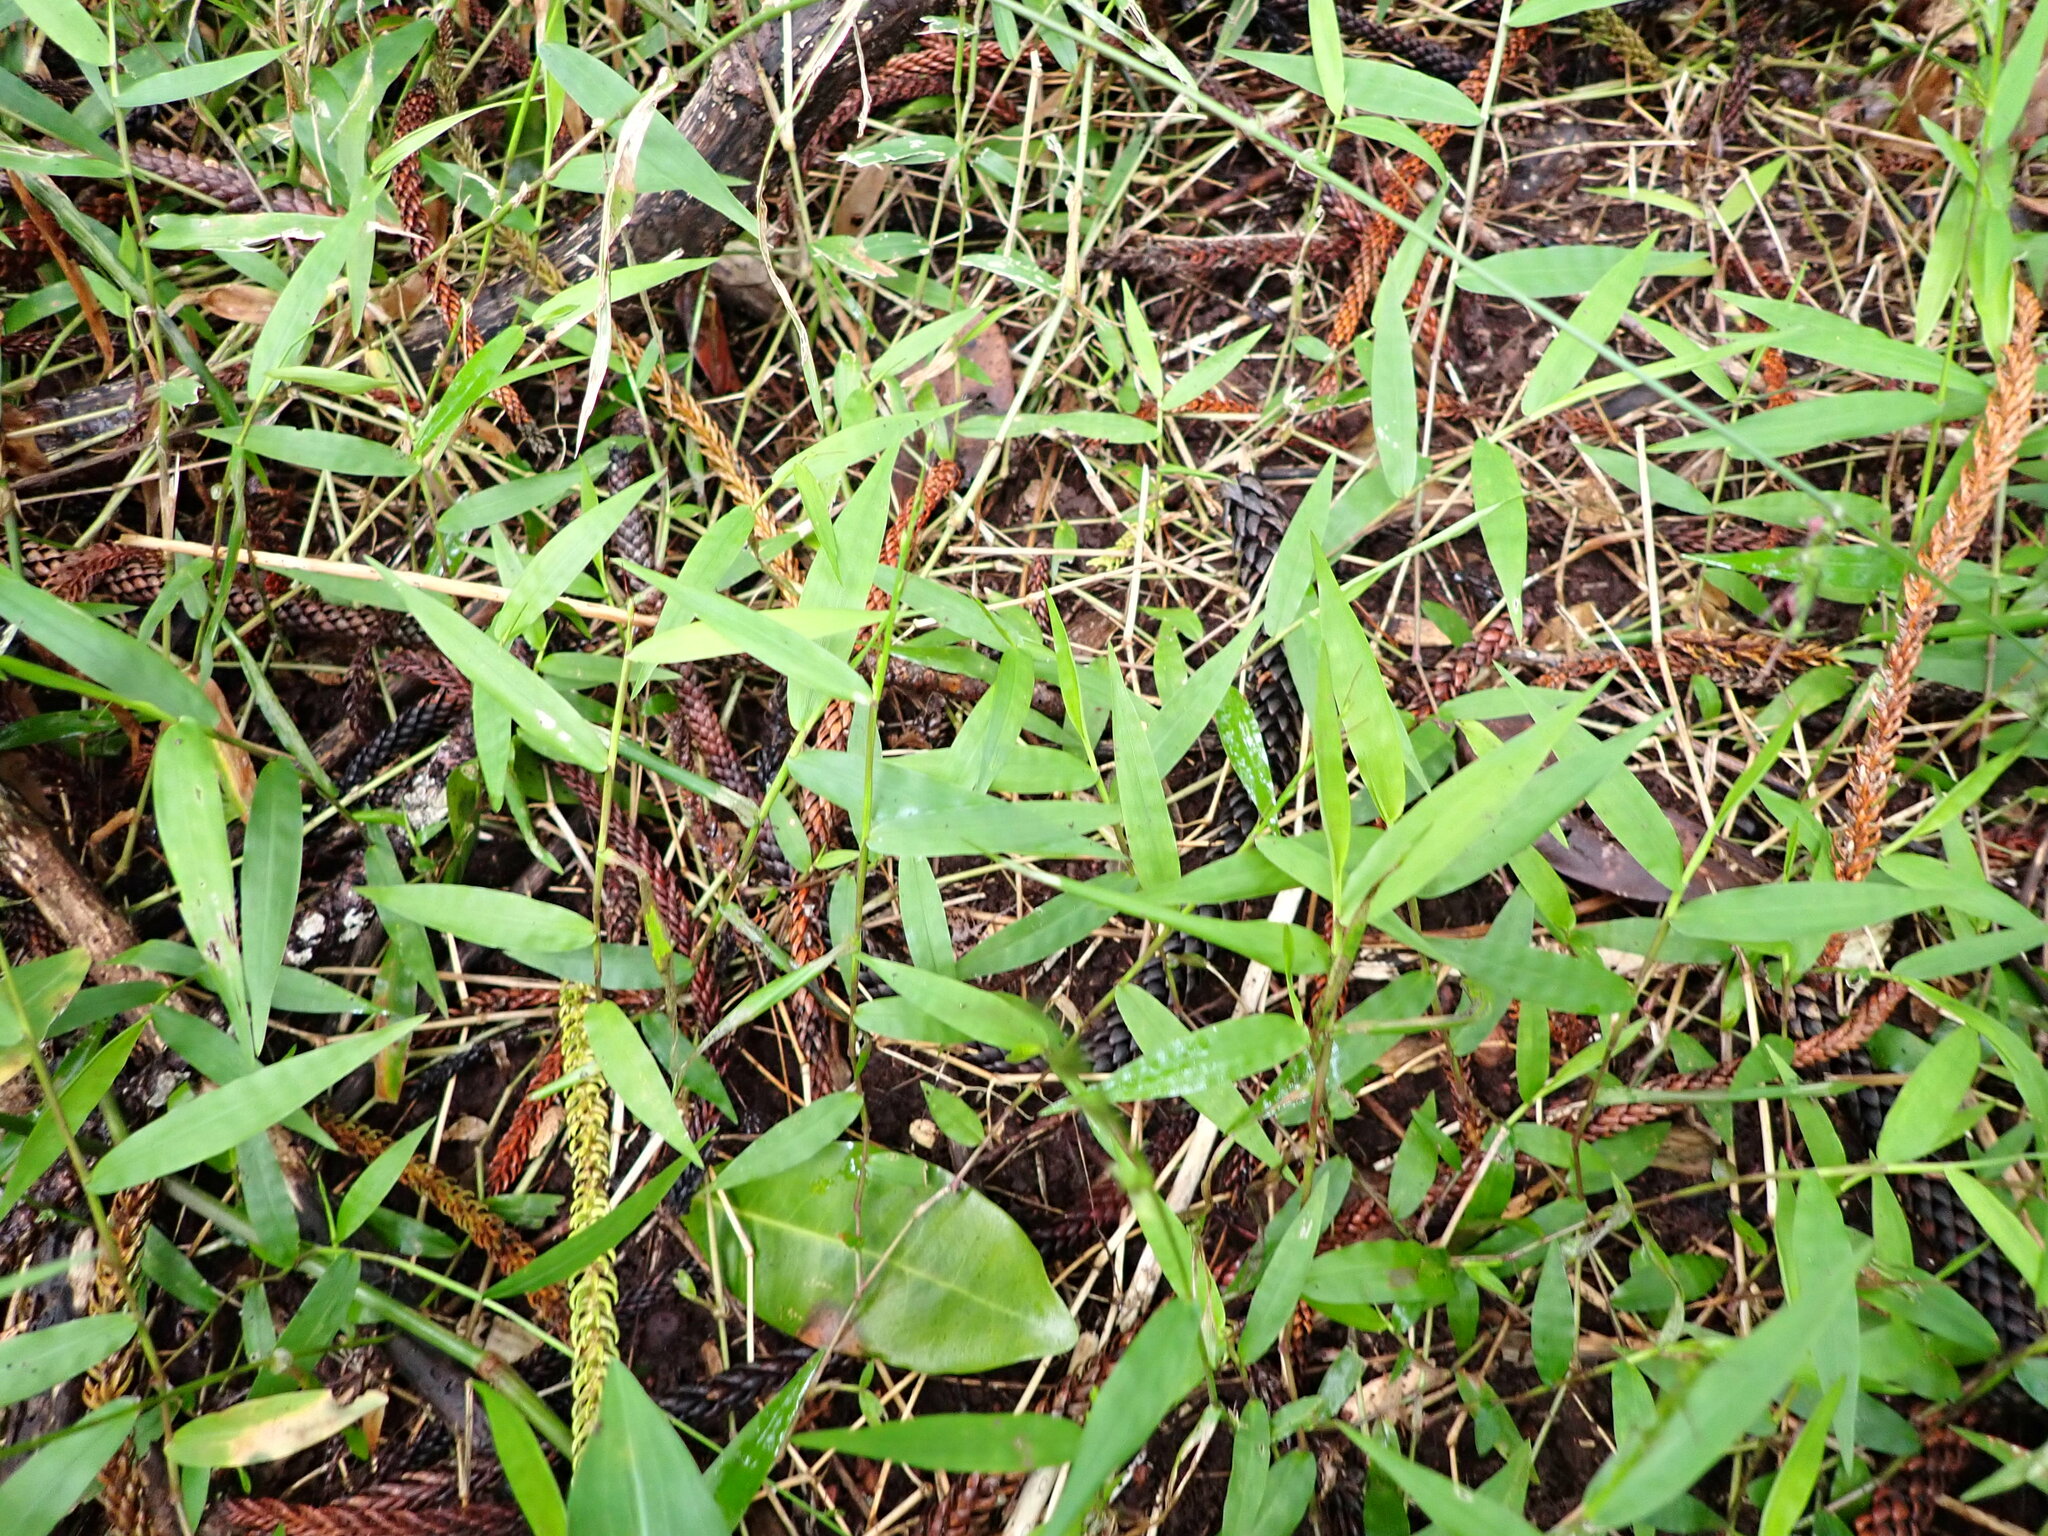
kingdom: Plantae
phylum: Tracheophyta
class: Liliopsida
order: Poales
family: Poaceae
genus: Oplismenus
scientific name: Oplismenus hirtellus
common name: Basketgrass
